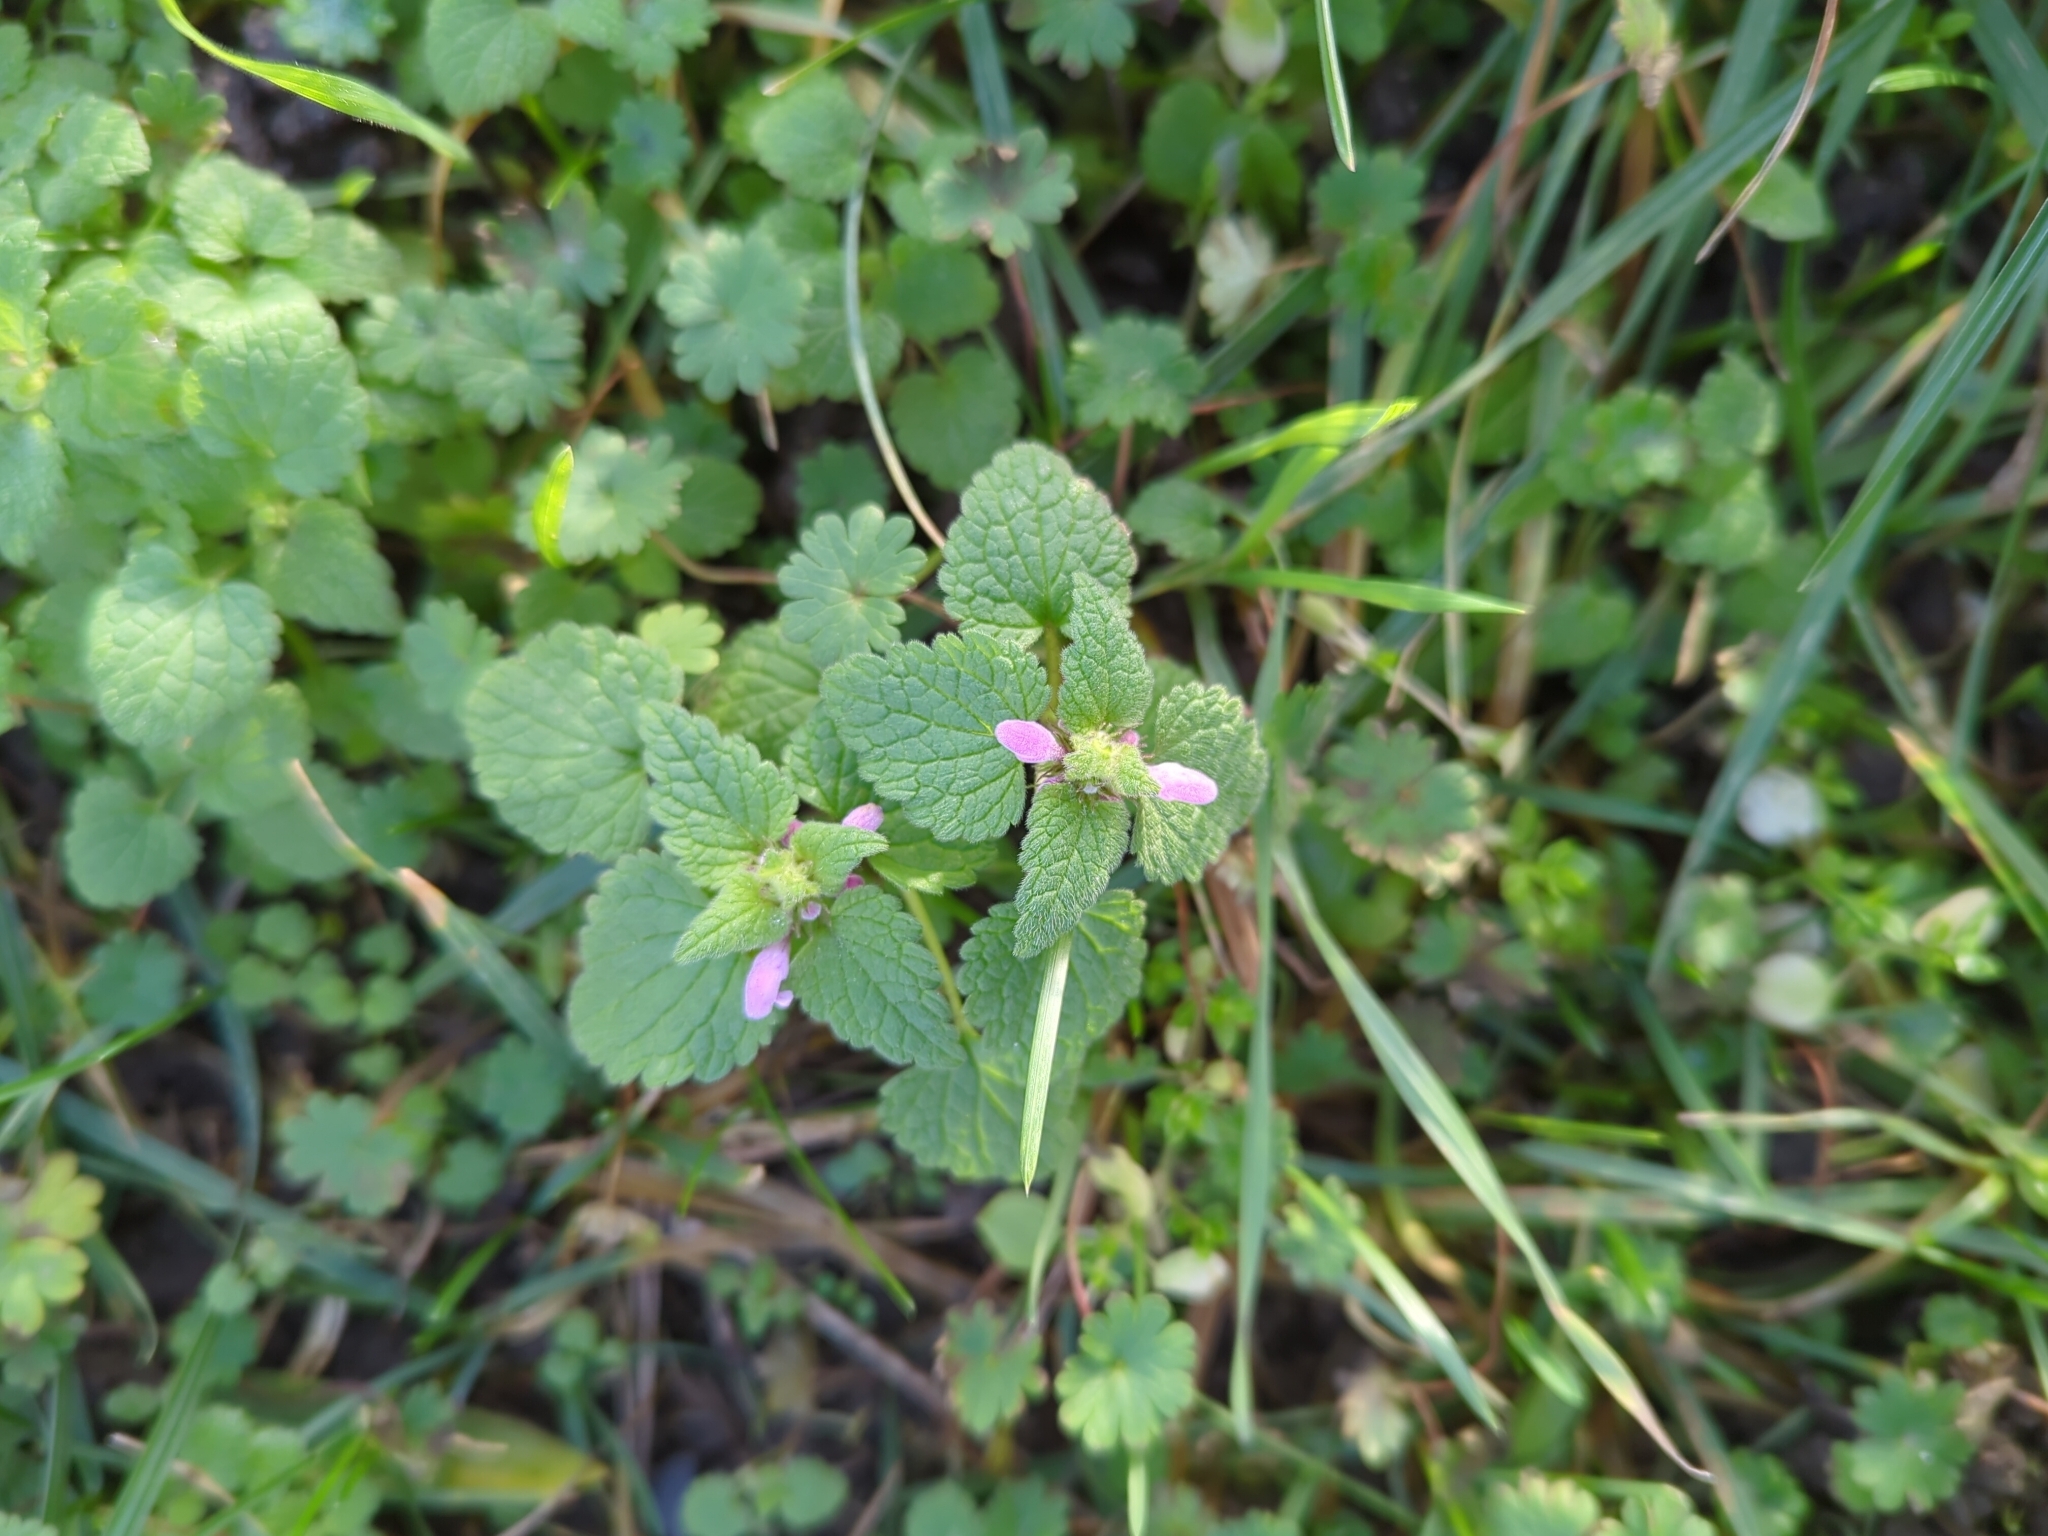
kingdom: Plantae
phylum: Tracheophyta
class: Magnoliopsida
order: Lamiales
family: Lamiaceae
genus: Lamium
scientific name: Lamium purpureum
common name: Red dead-nettle
